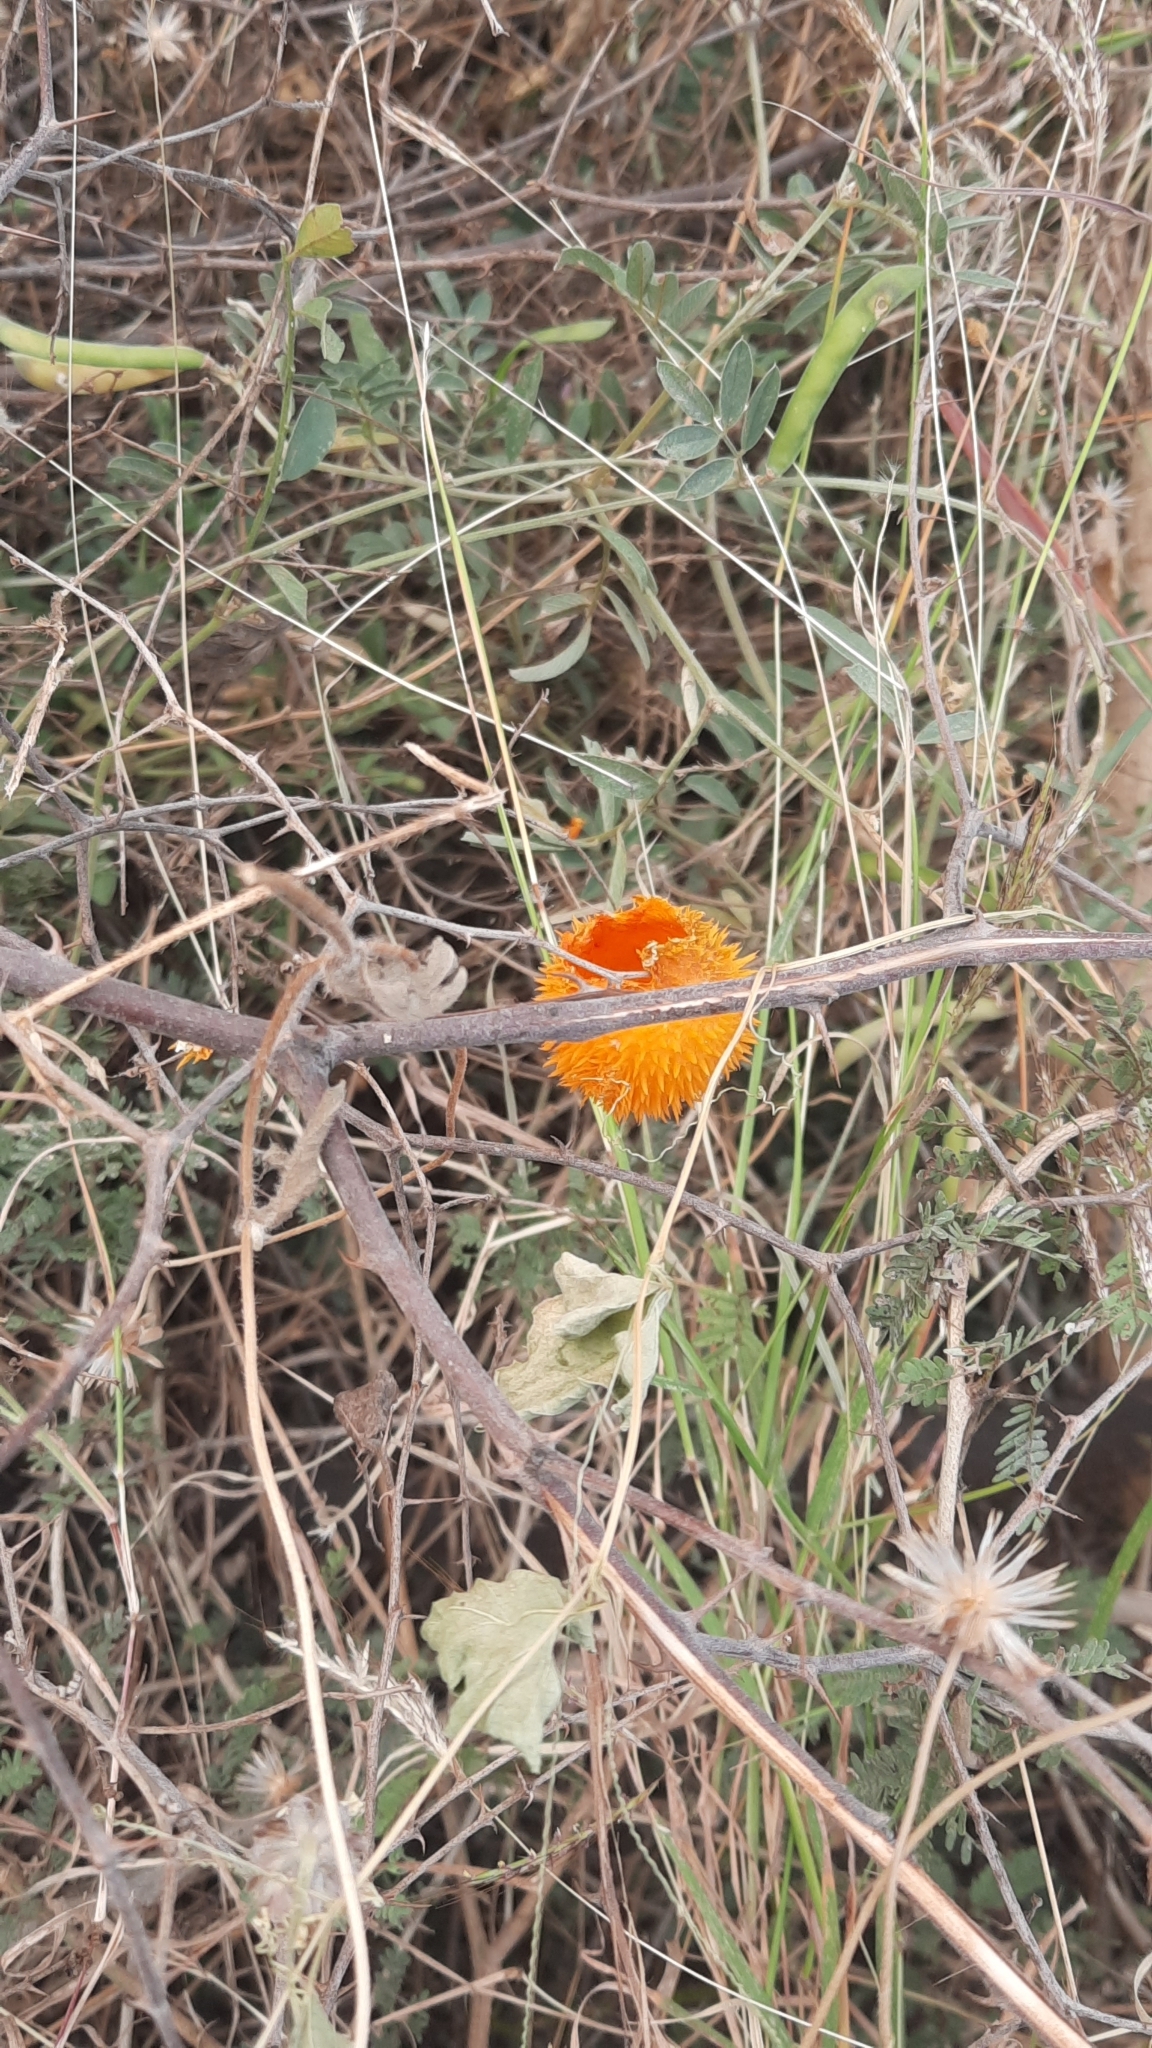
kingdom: Plantae
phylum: Tracheophyta
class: Magnoliopsida
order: Cucurbitales
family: Cucurbitaceae
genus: Momordica
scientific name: Momordica dioica
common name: Spine gourd
